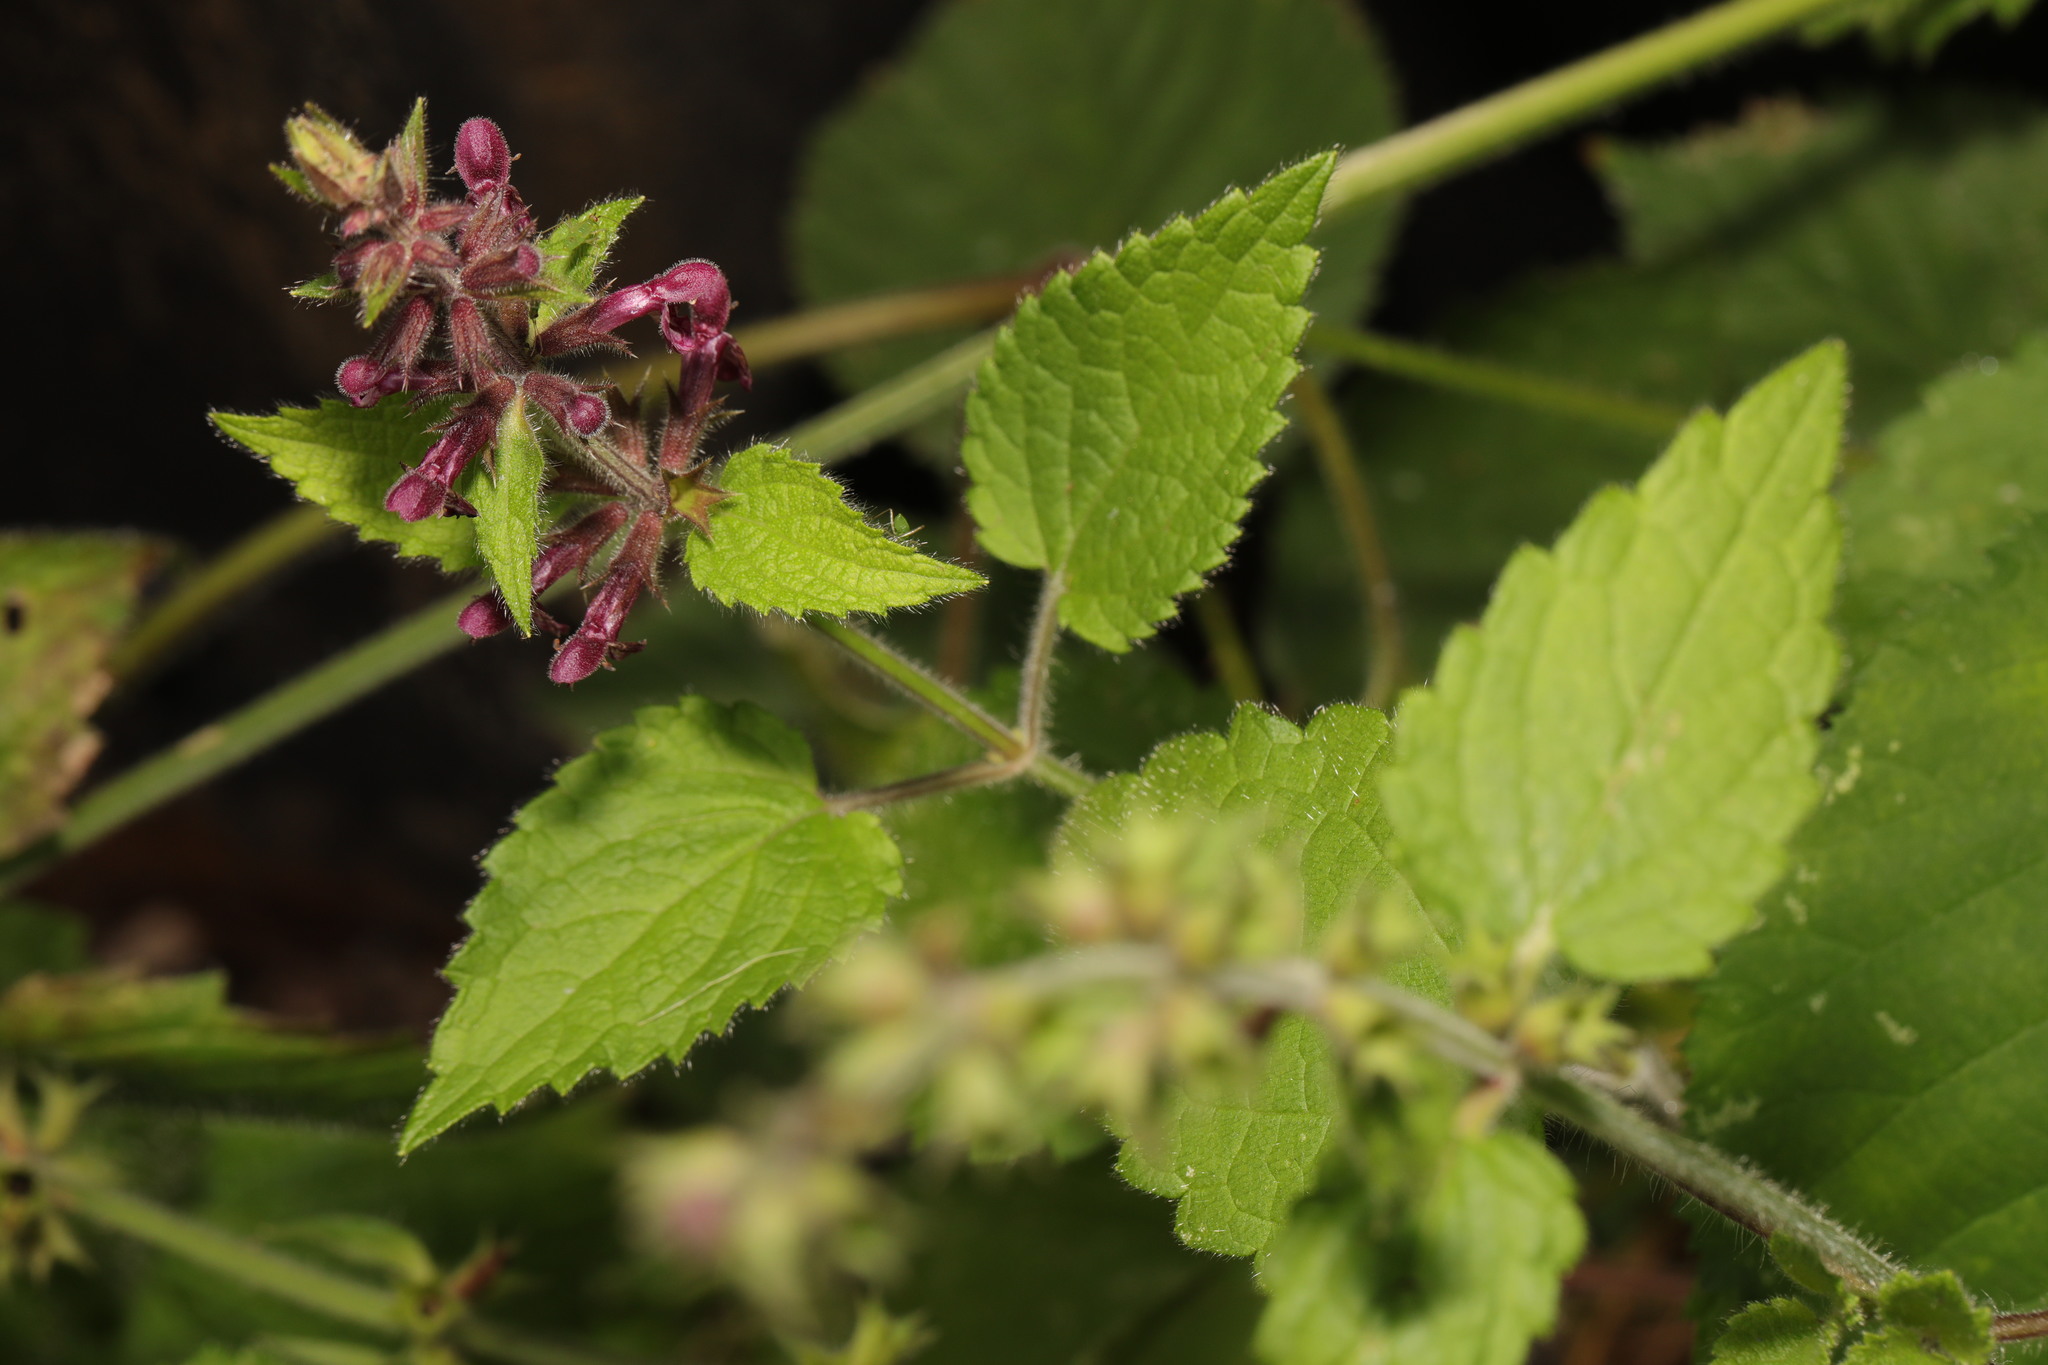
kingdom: Plantae
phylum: Tracheophyta
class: Magnoliopsida
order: Lamiales
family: Lamiaceae
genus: Stachys
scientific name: Stachys sylvatica
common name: Hedge woundwort
